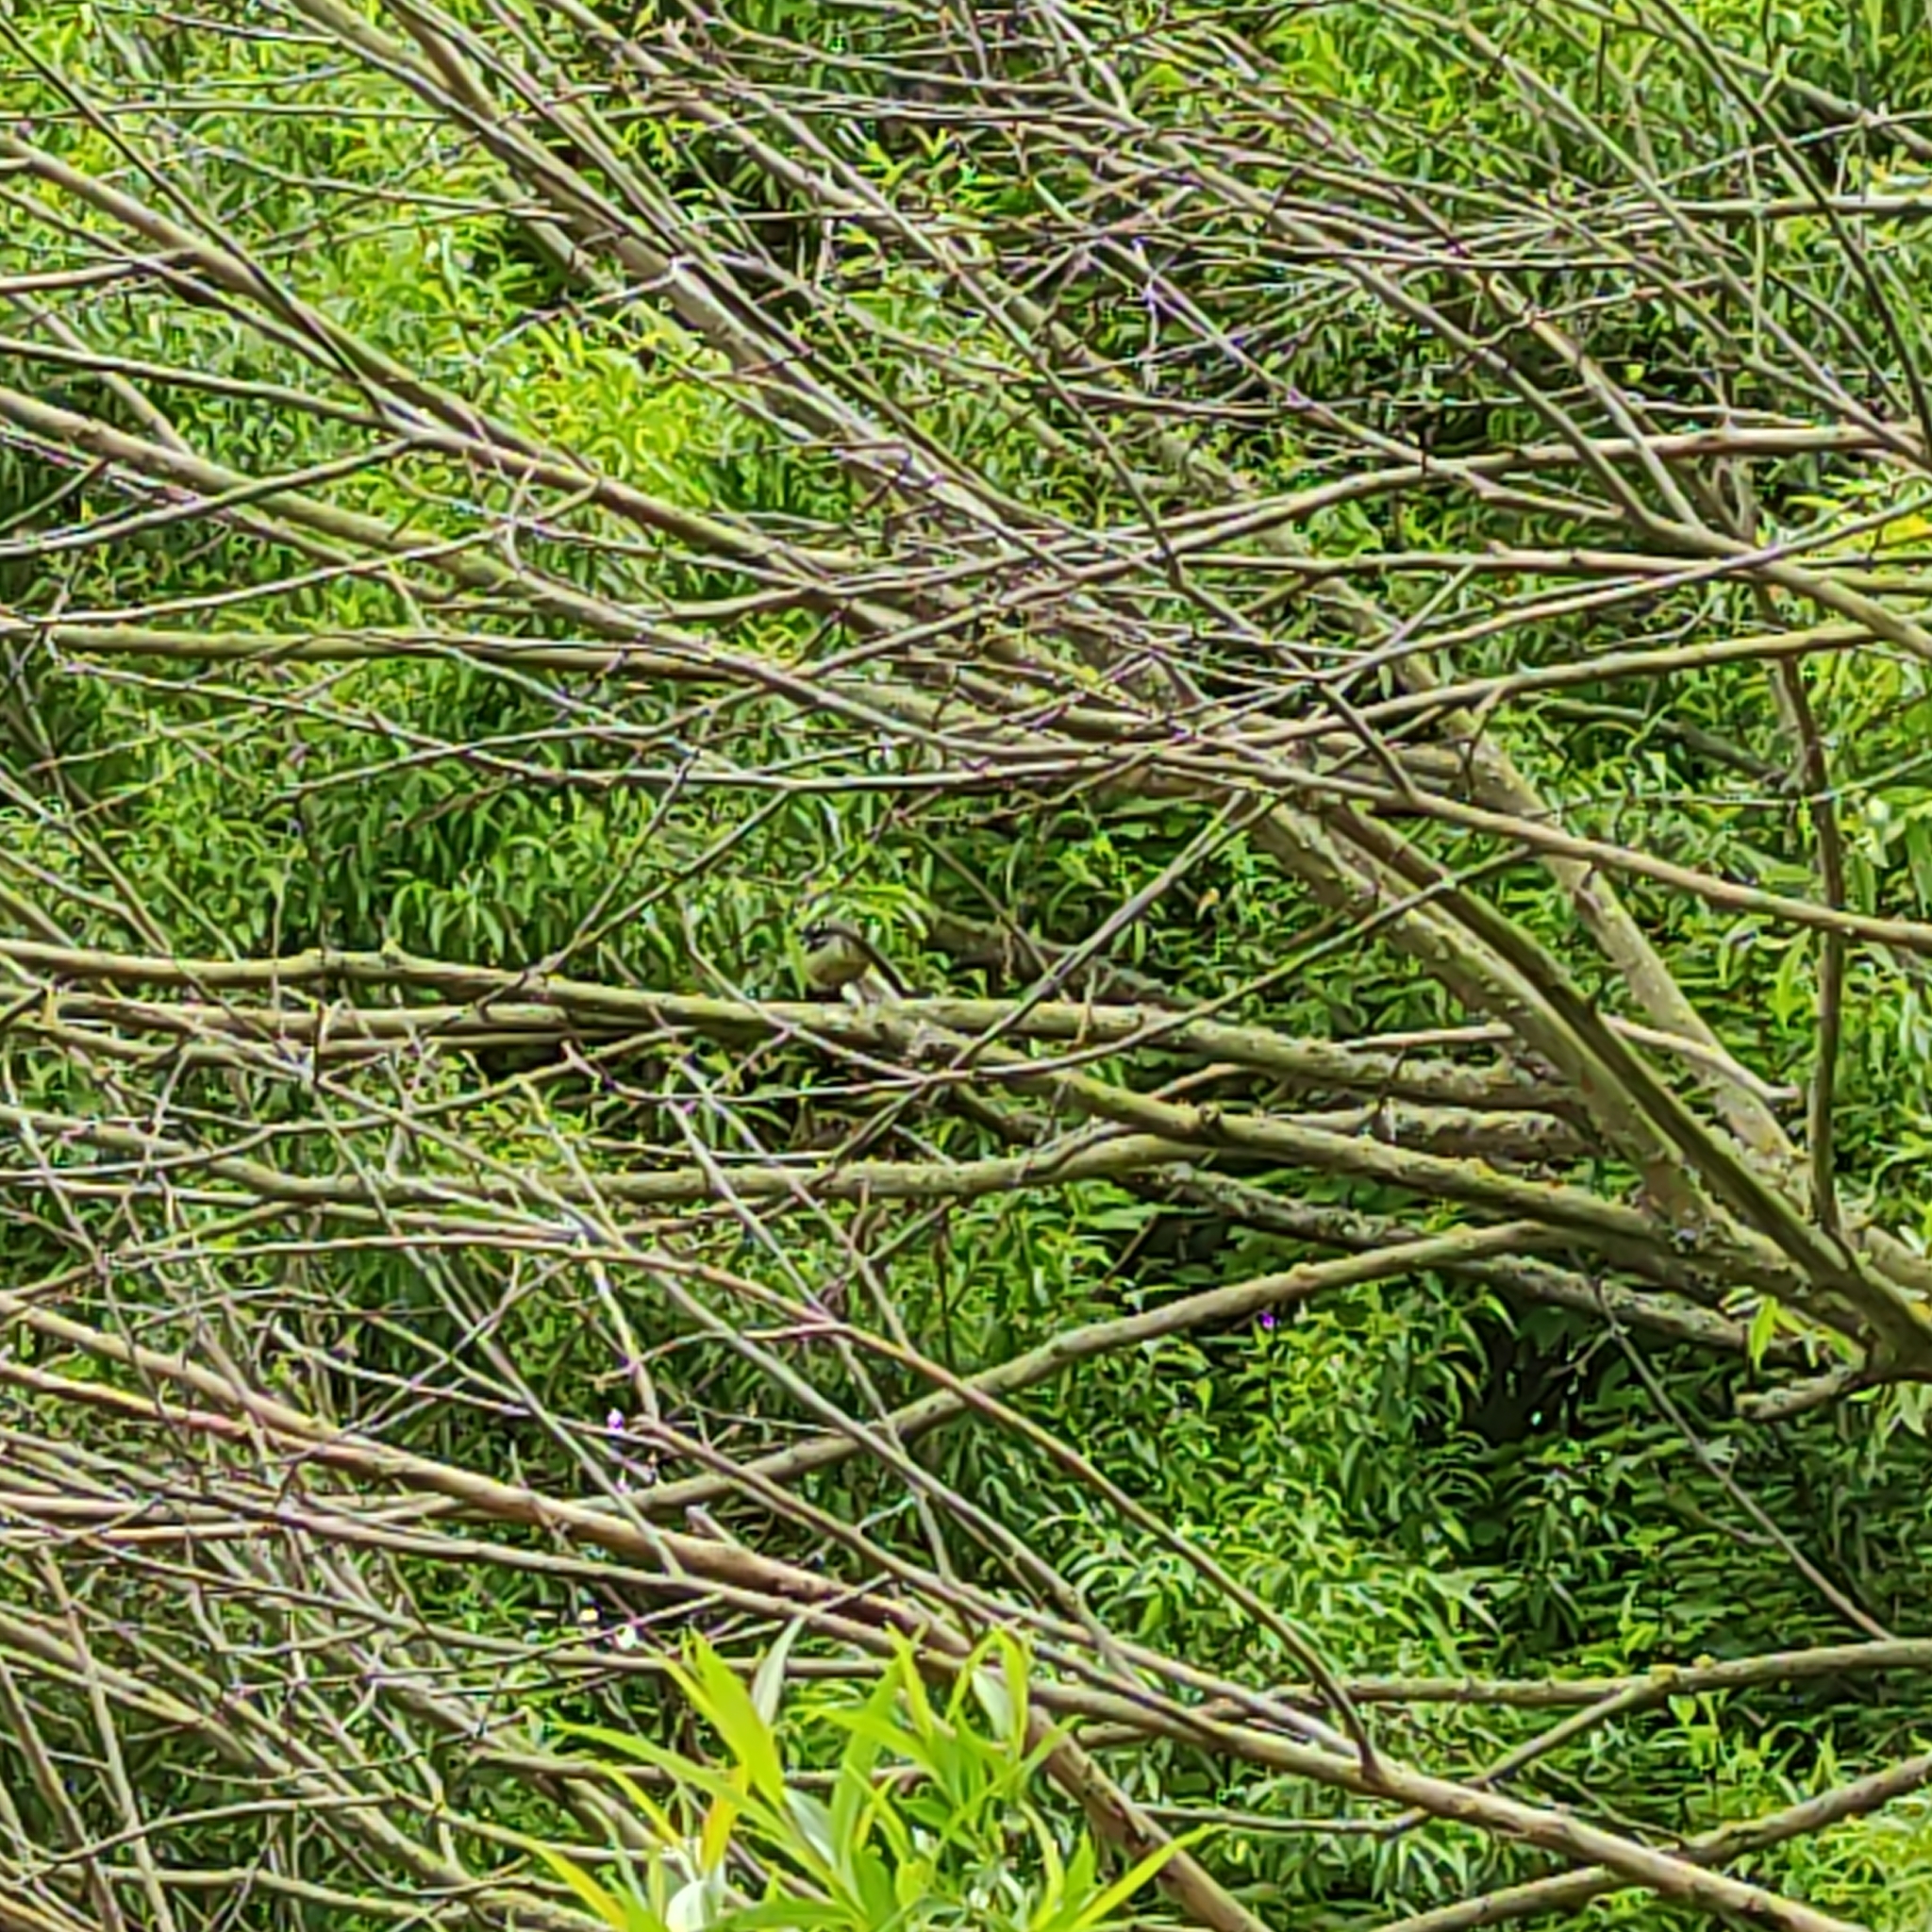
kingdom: Animalia
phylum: Chordata
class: Aves
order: Passeriformes
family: Rhipiduridae
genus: Rhipidura
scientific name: Rhipidura fuliginosa
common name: New zealand fantail
